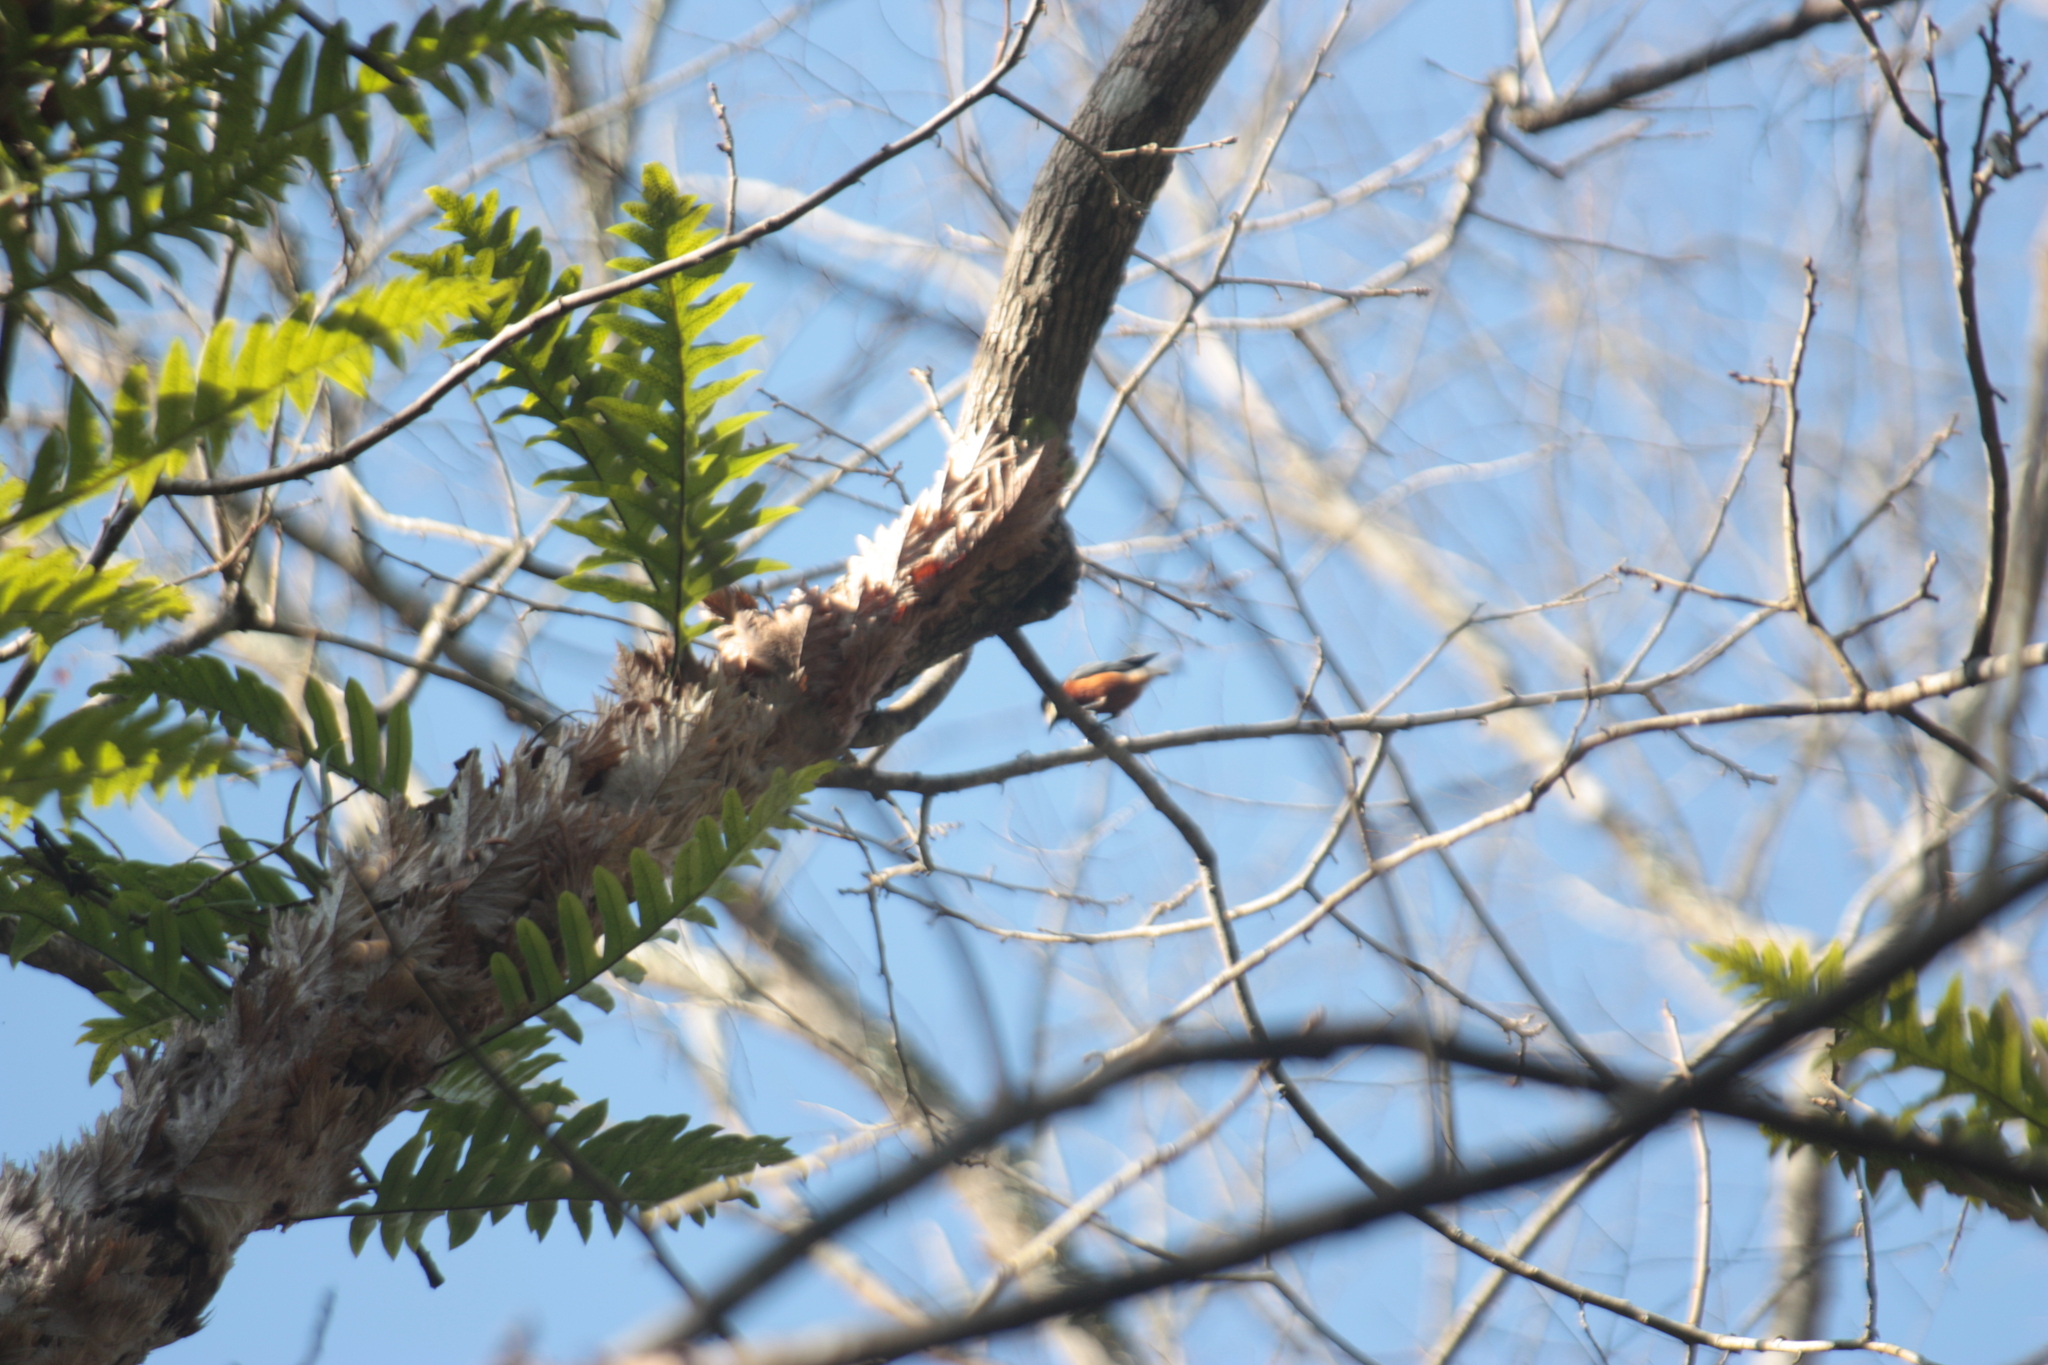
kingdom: Animalia
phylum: Chordata
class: Aves
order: Passeriformes
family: Paridae
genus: Poecile
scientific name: Poecile varius
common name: Varied tit
